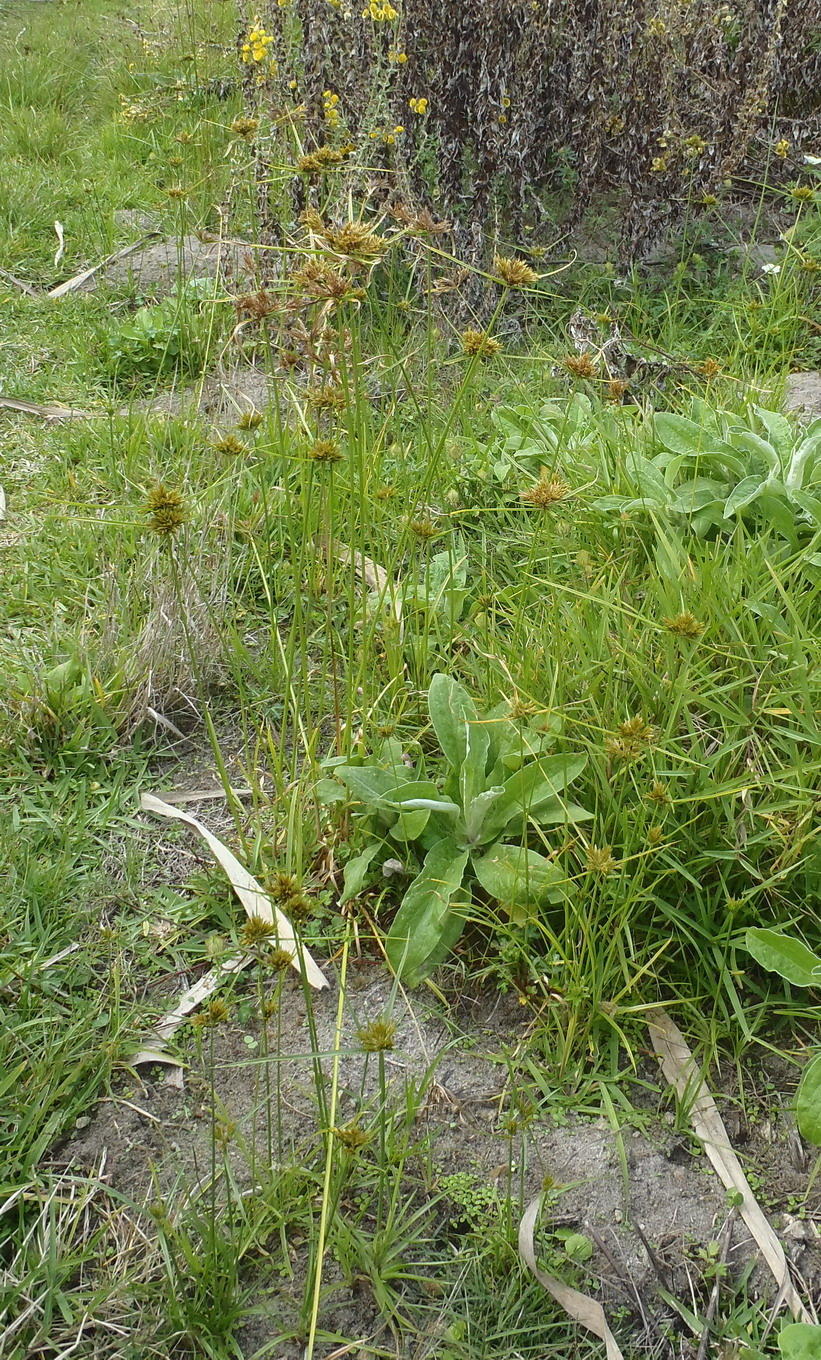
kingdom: Plantae
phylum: Tracheophyta
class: Liliopsida
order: Poales
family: Cyperaceae
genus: Cyperus
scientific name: Cyperus polystachyos
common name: Bunchy flat sedge
